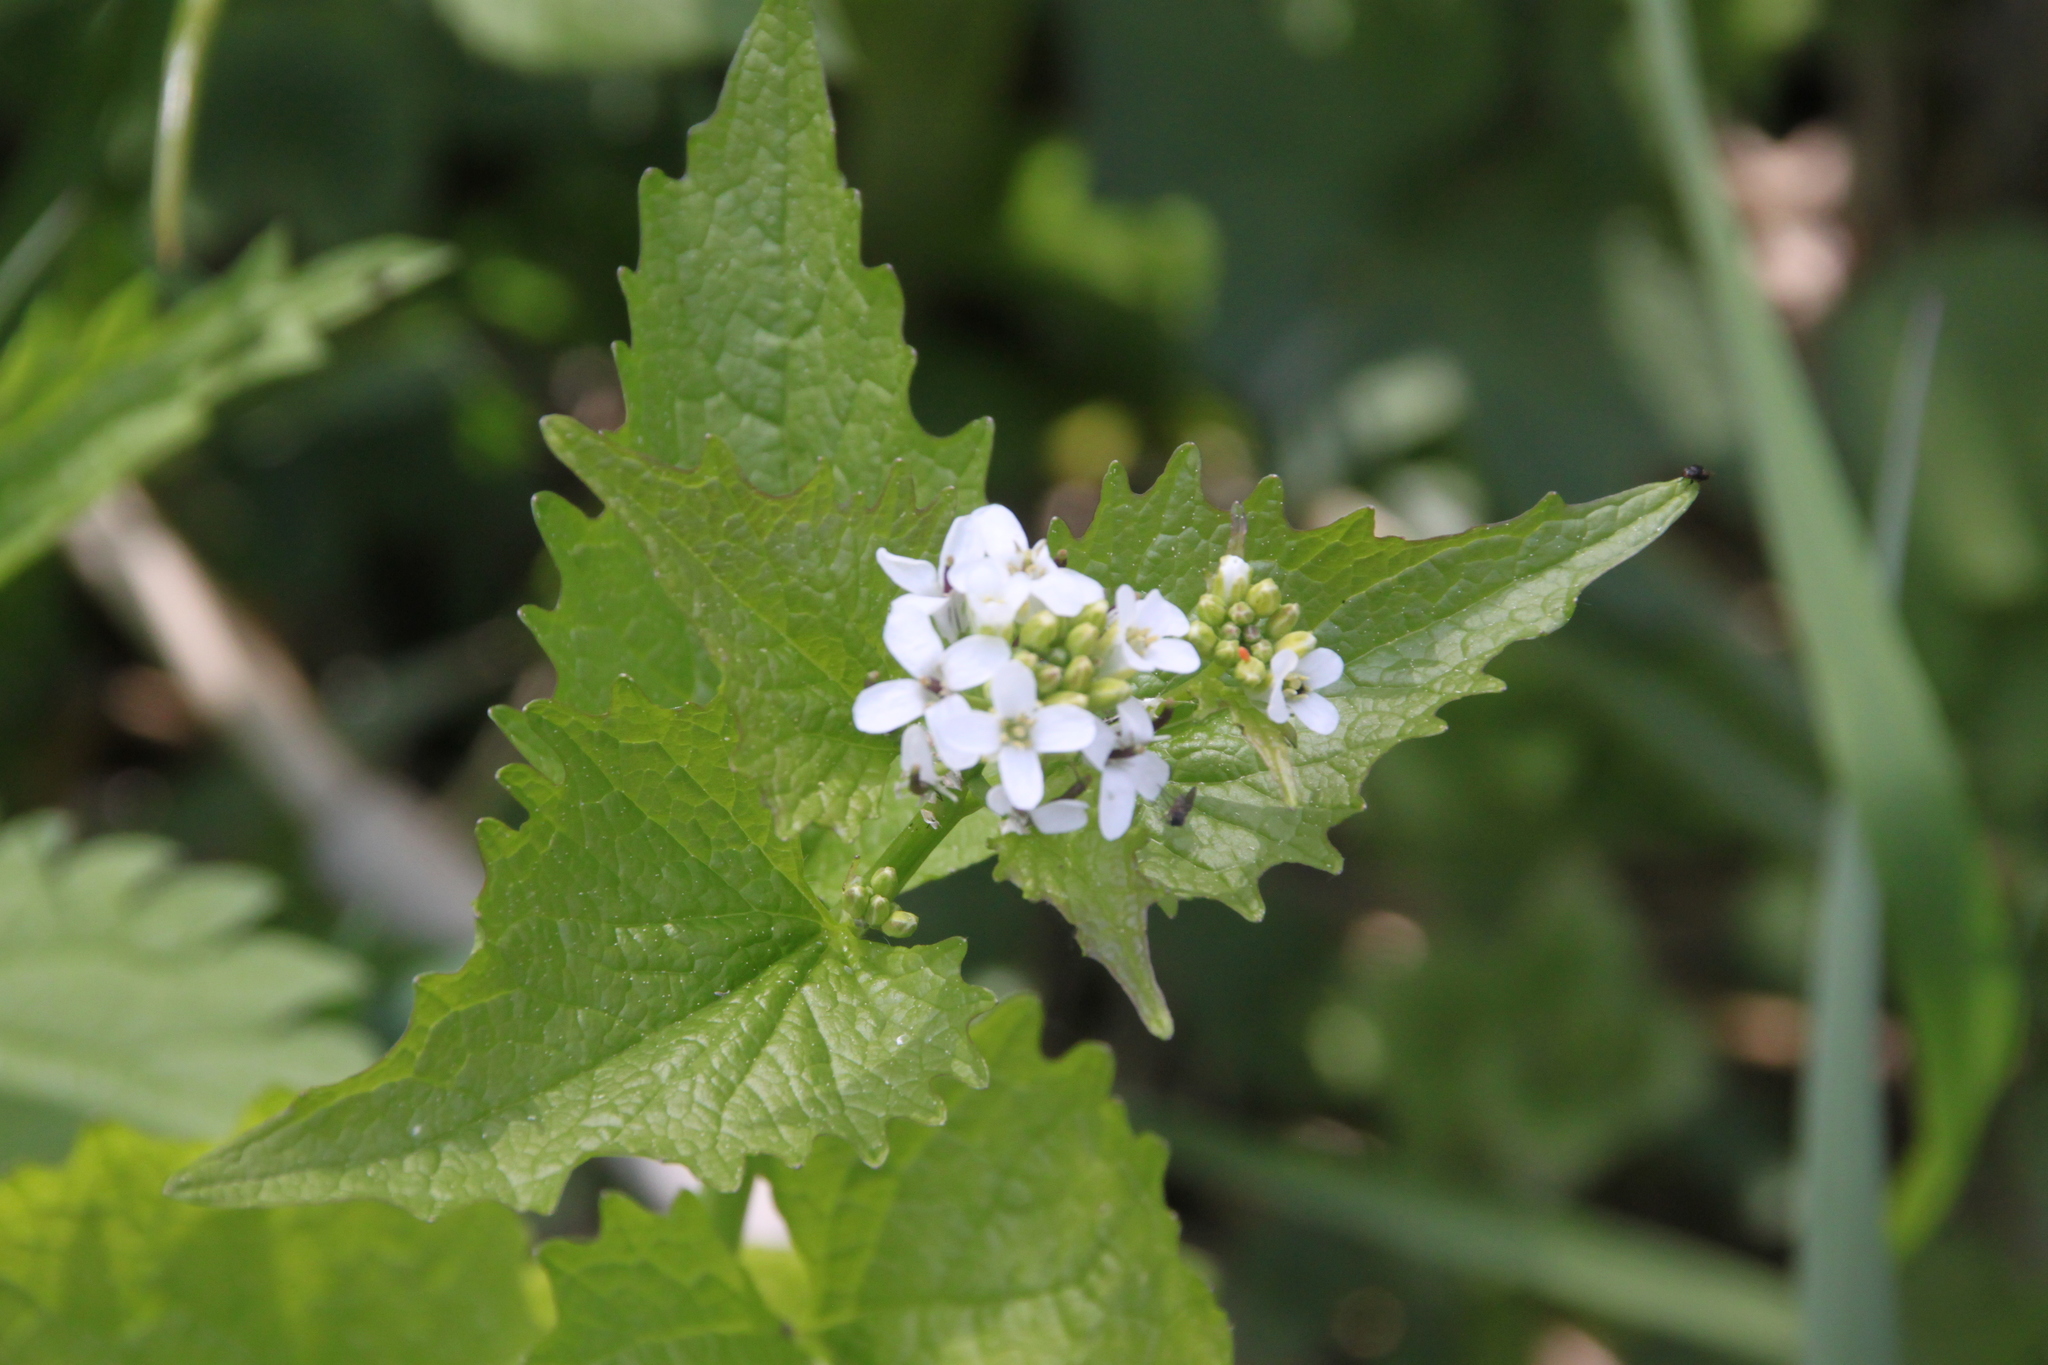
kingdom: Plantae
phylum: Tracheophyta
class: Magnoliopsida
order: Brassicales
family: Brassicaceae
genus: Alliaria
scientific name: Alliaria petiolata
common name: Garlic mustard
